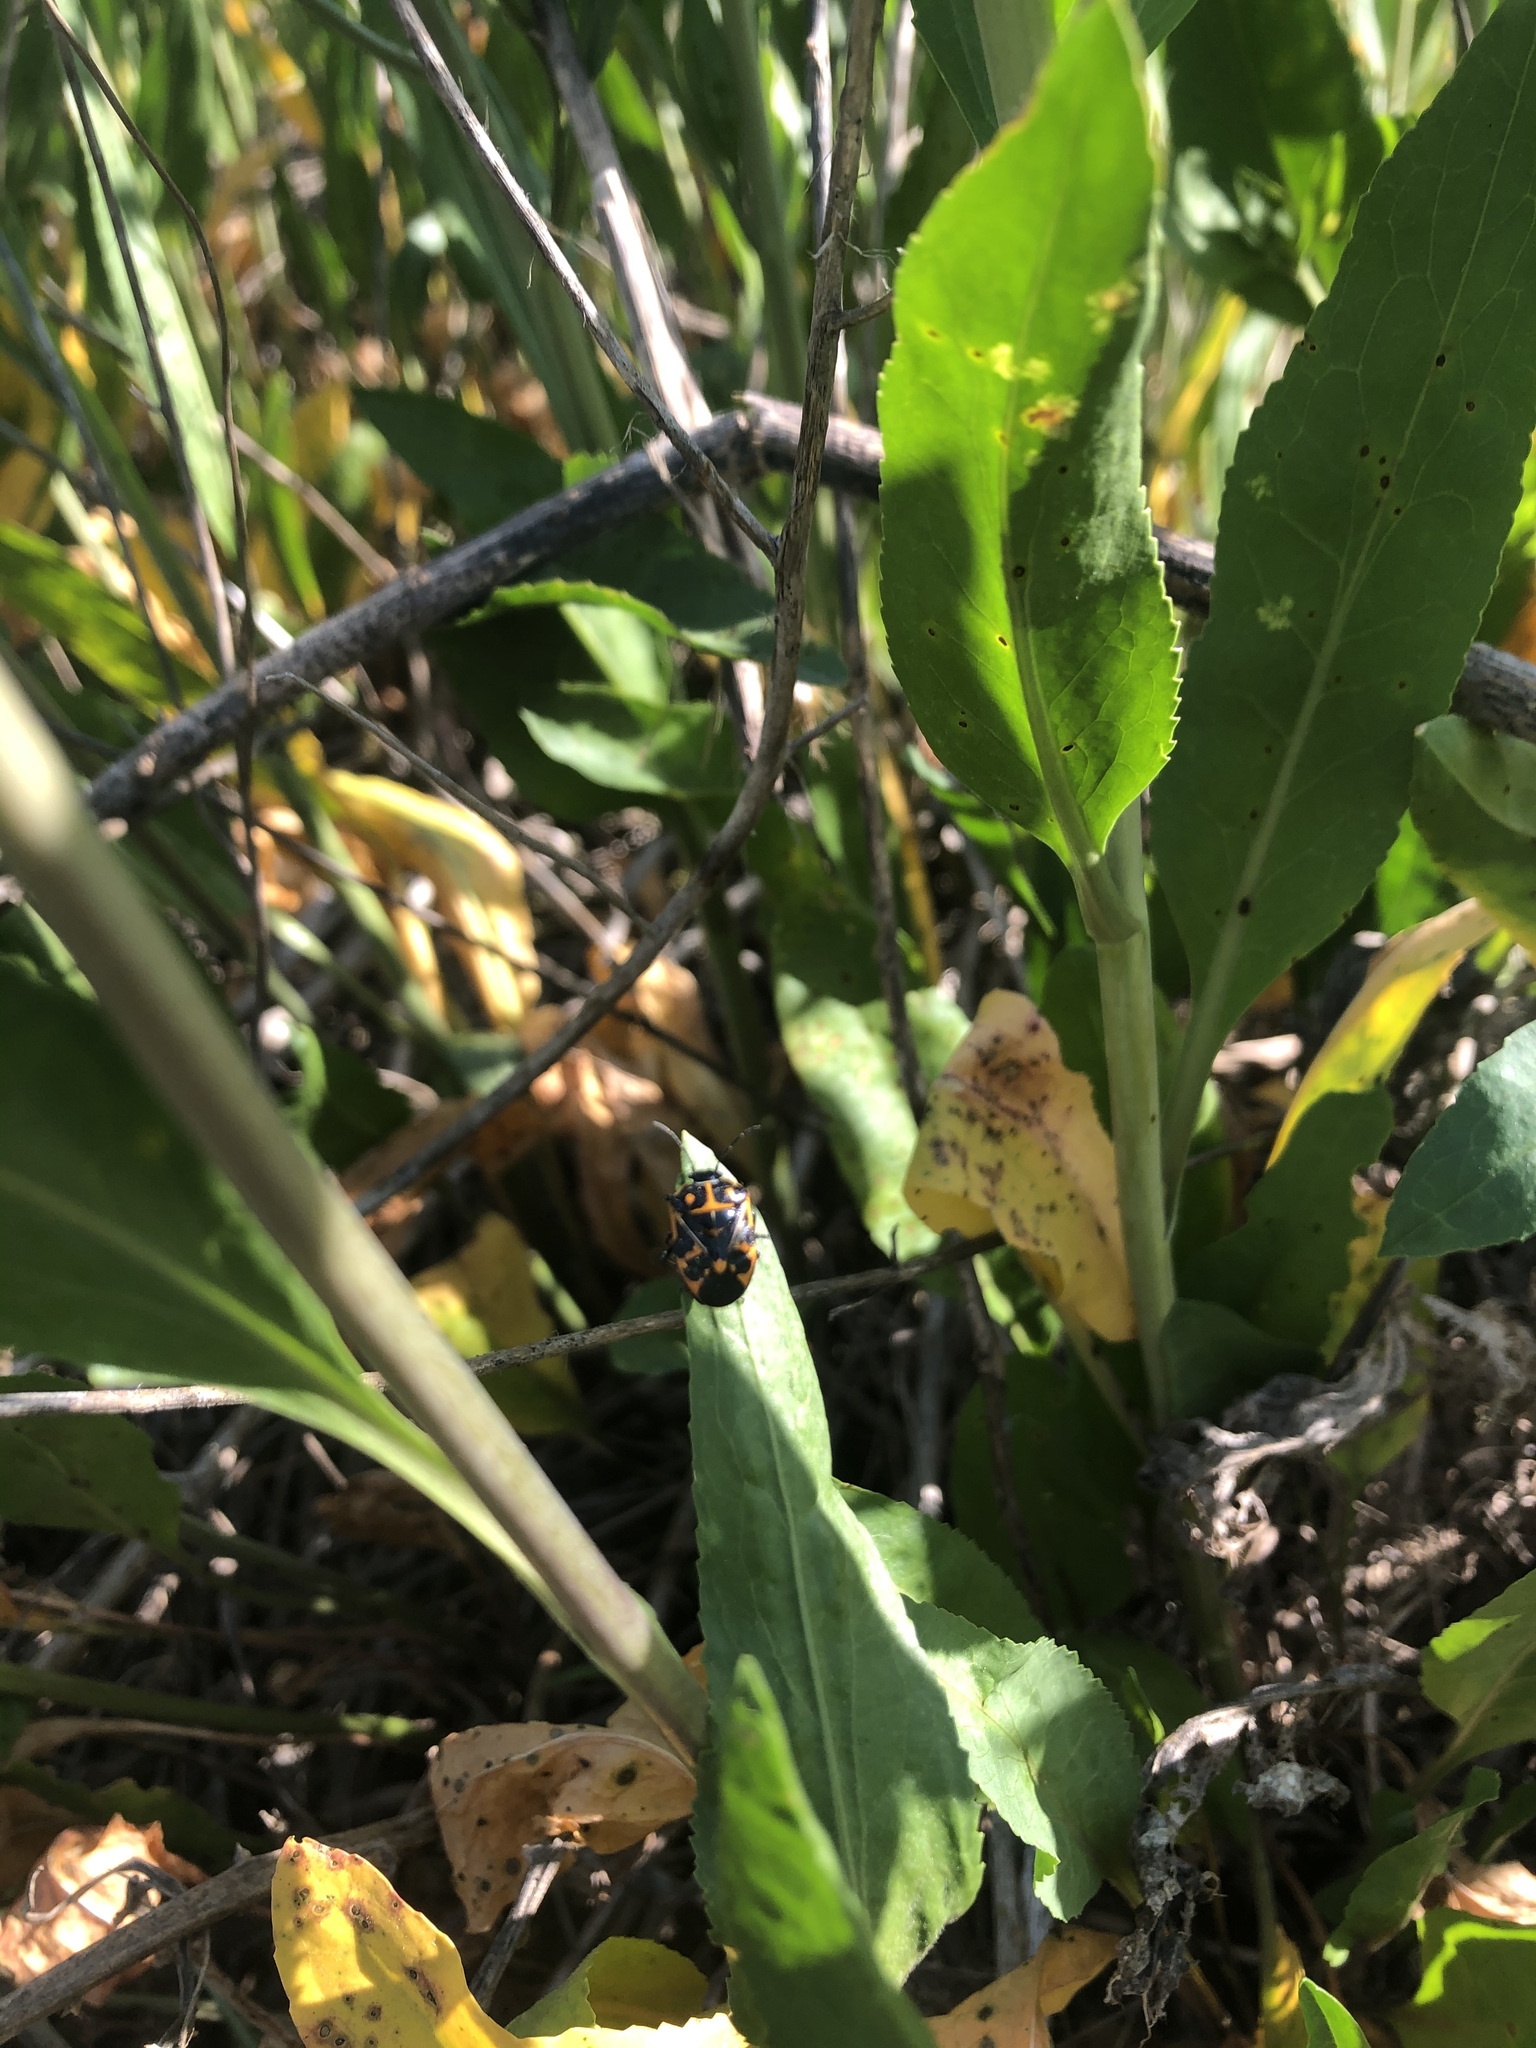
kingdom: Animalia
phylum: Arthropoda
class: Insecta
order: Hemiptera
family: Pentatomidae
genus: Murgantia
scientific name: Murgantia histrionica
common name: Harlequin bug
